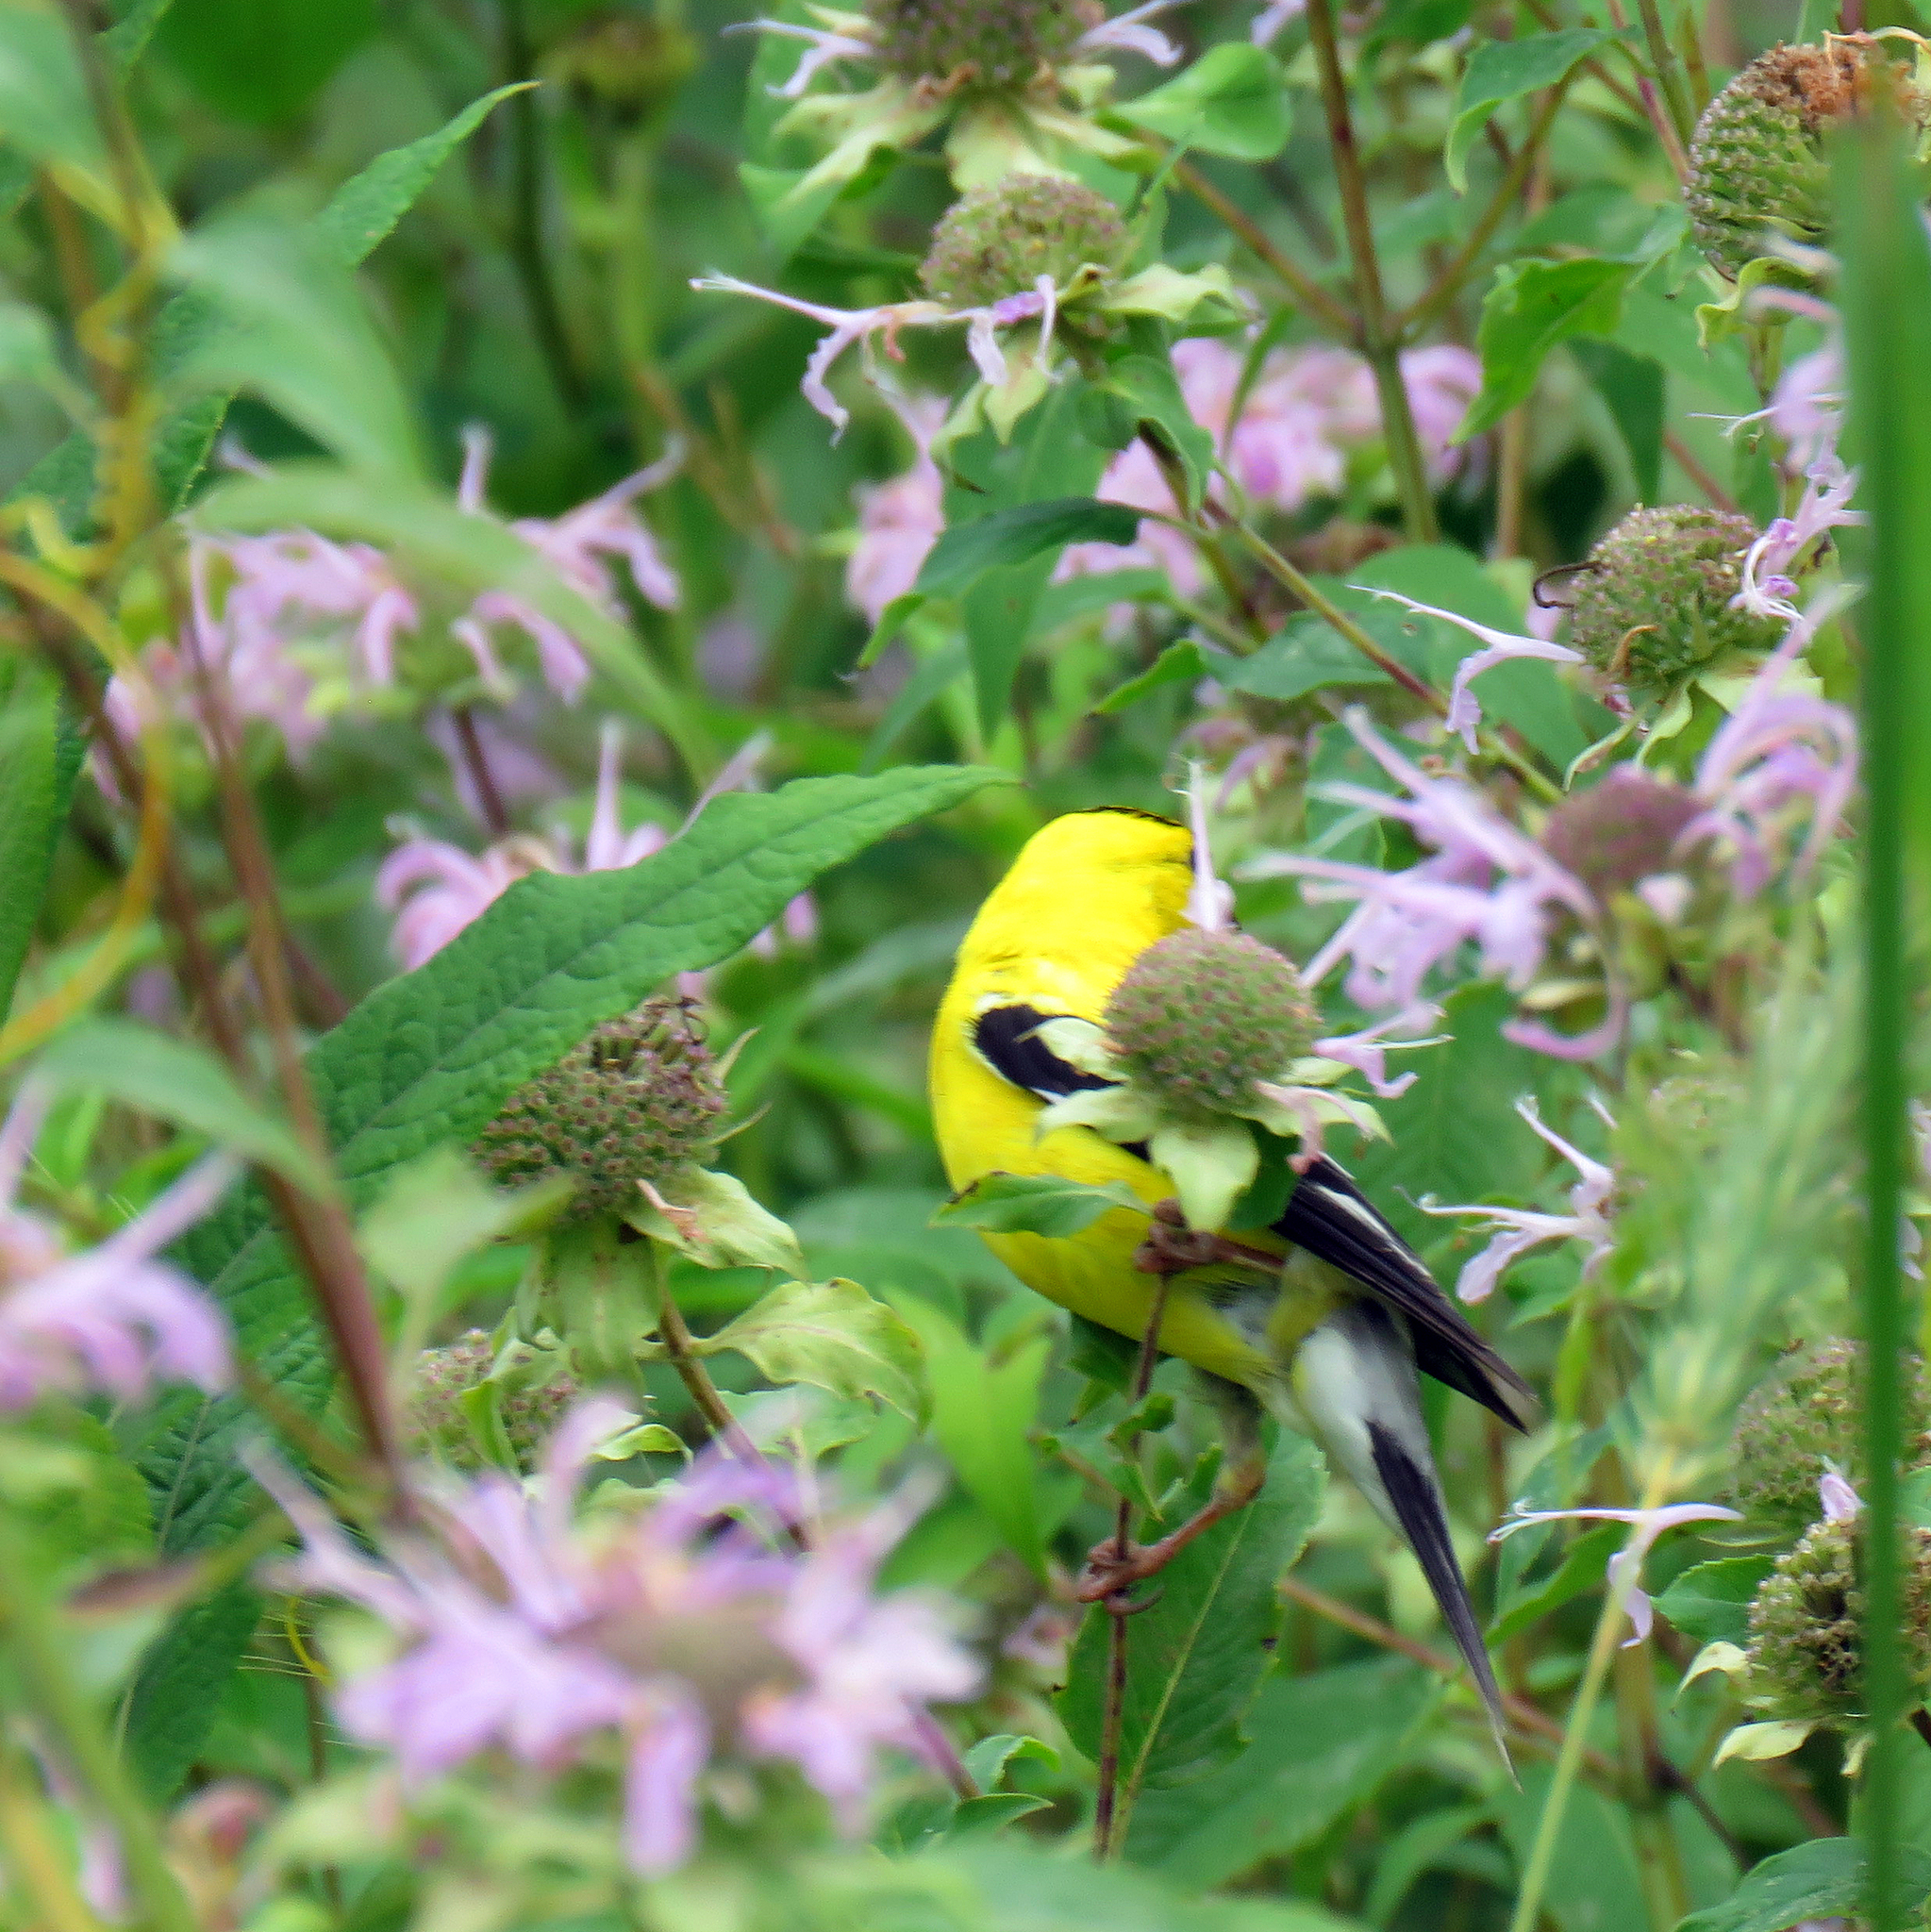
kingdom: Animalia
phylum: Chordata
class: Aves
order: Passeriformes
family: Fringillidae
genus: Spinus
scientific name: Spinus tristis
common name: American goldfinch
